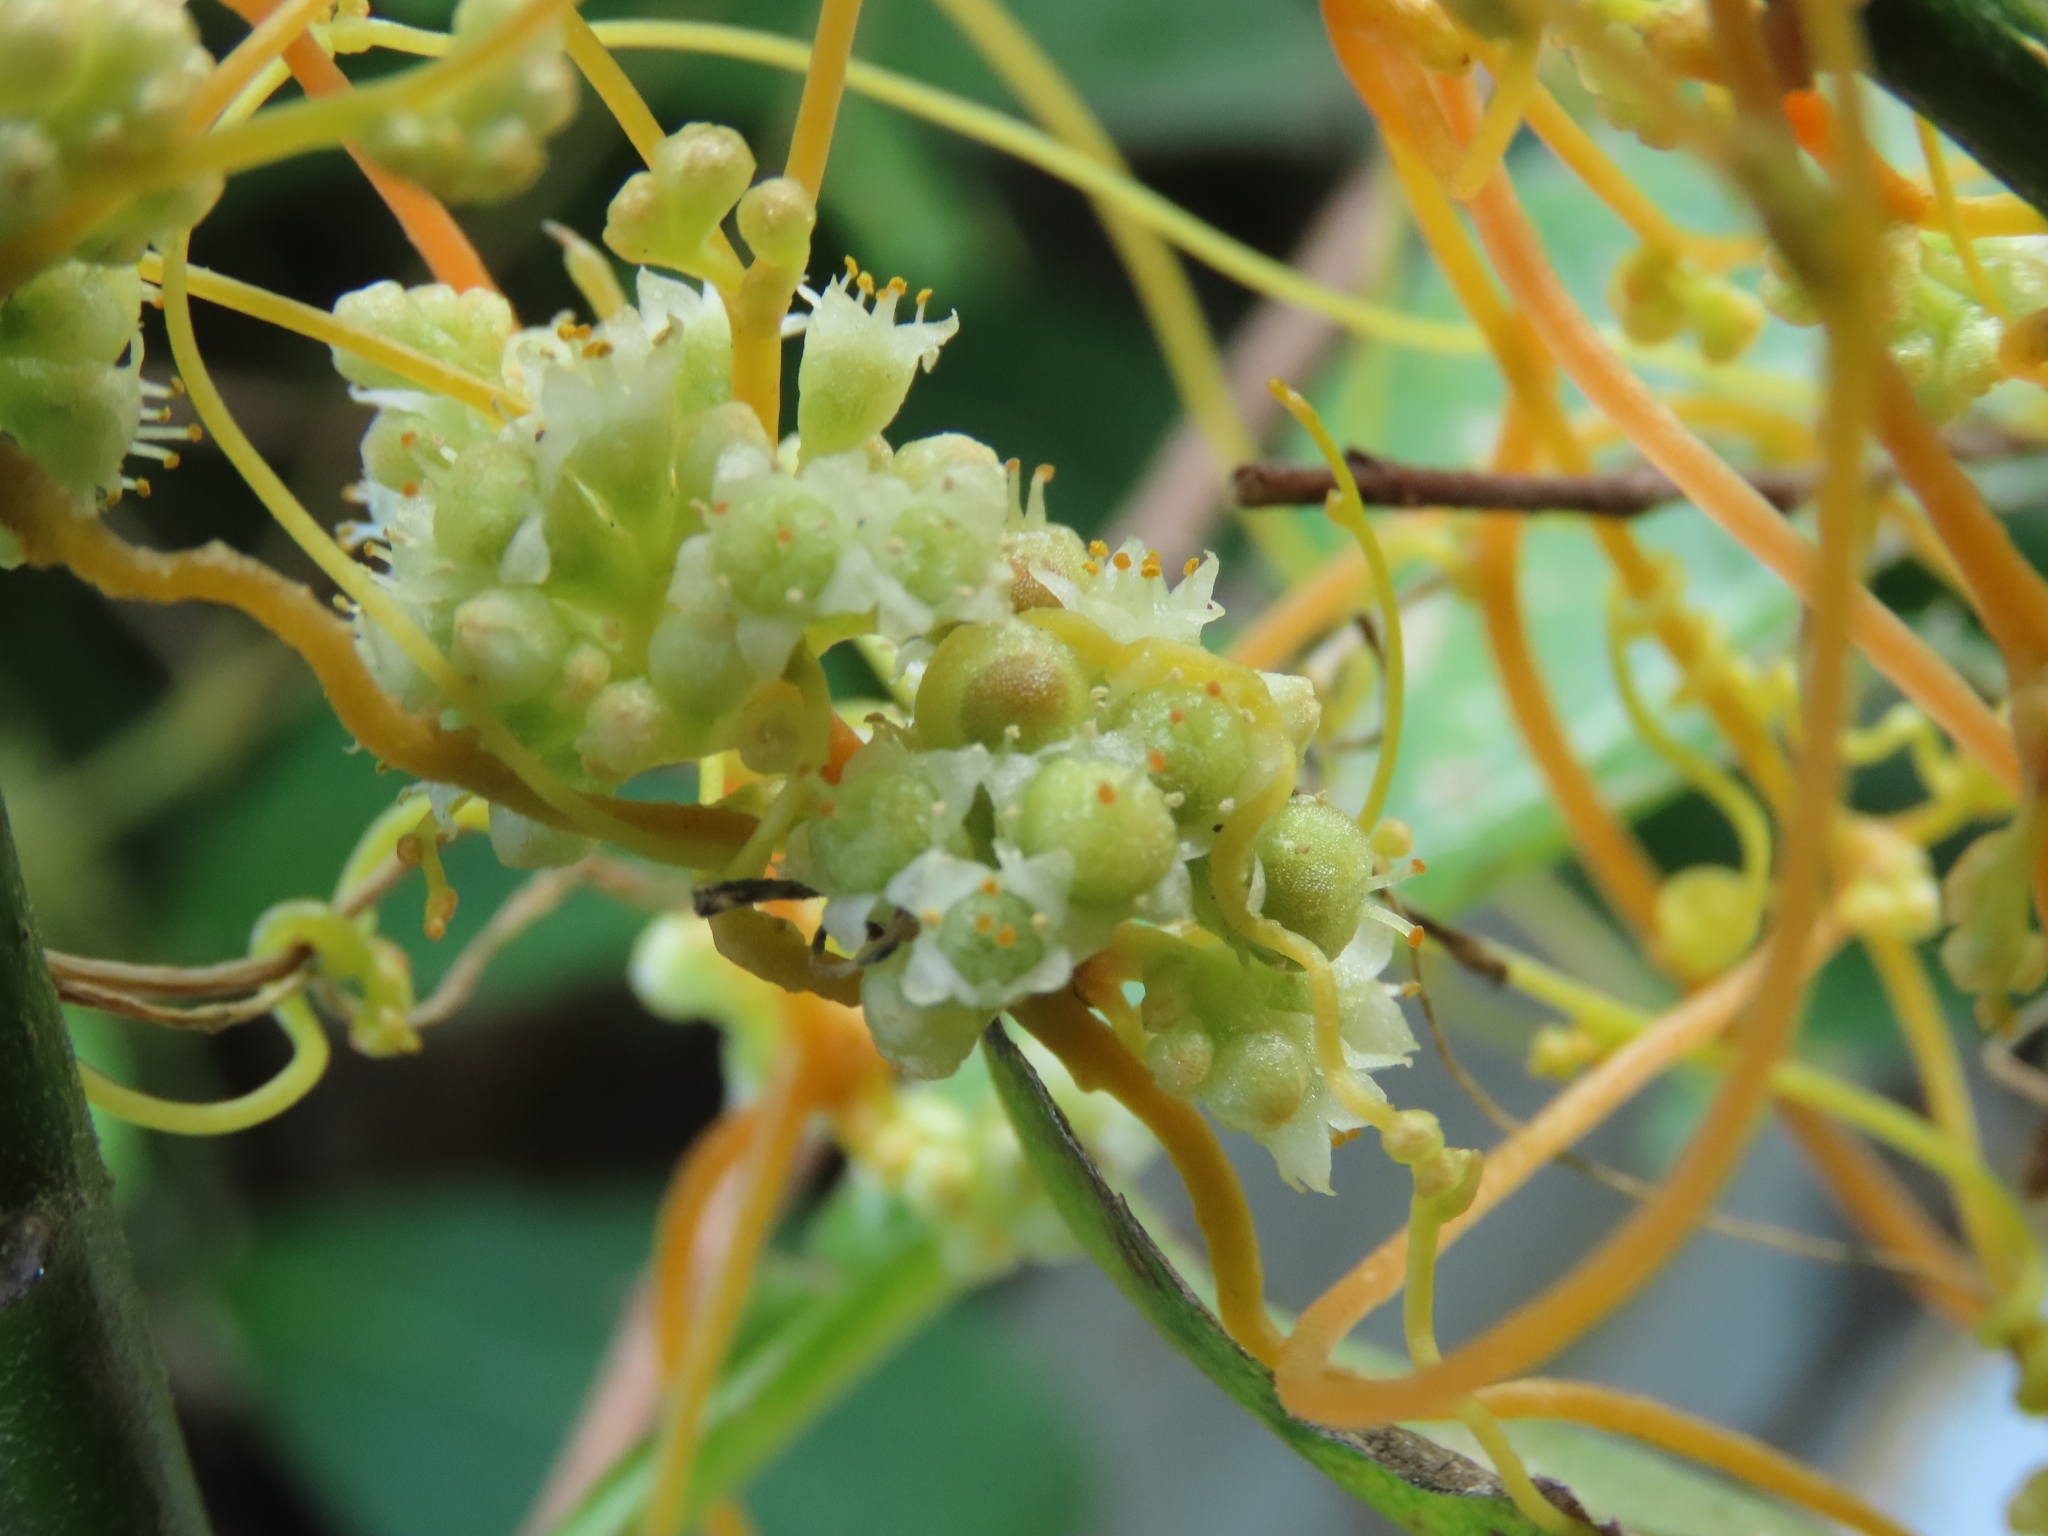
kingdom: Plantae
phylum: Tracheophyta
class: Magnoliopsida
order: Solanales
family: Convolvulaceae
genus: Cuscuta
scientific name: Cuscuta campestris
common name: Yellow dodder
